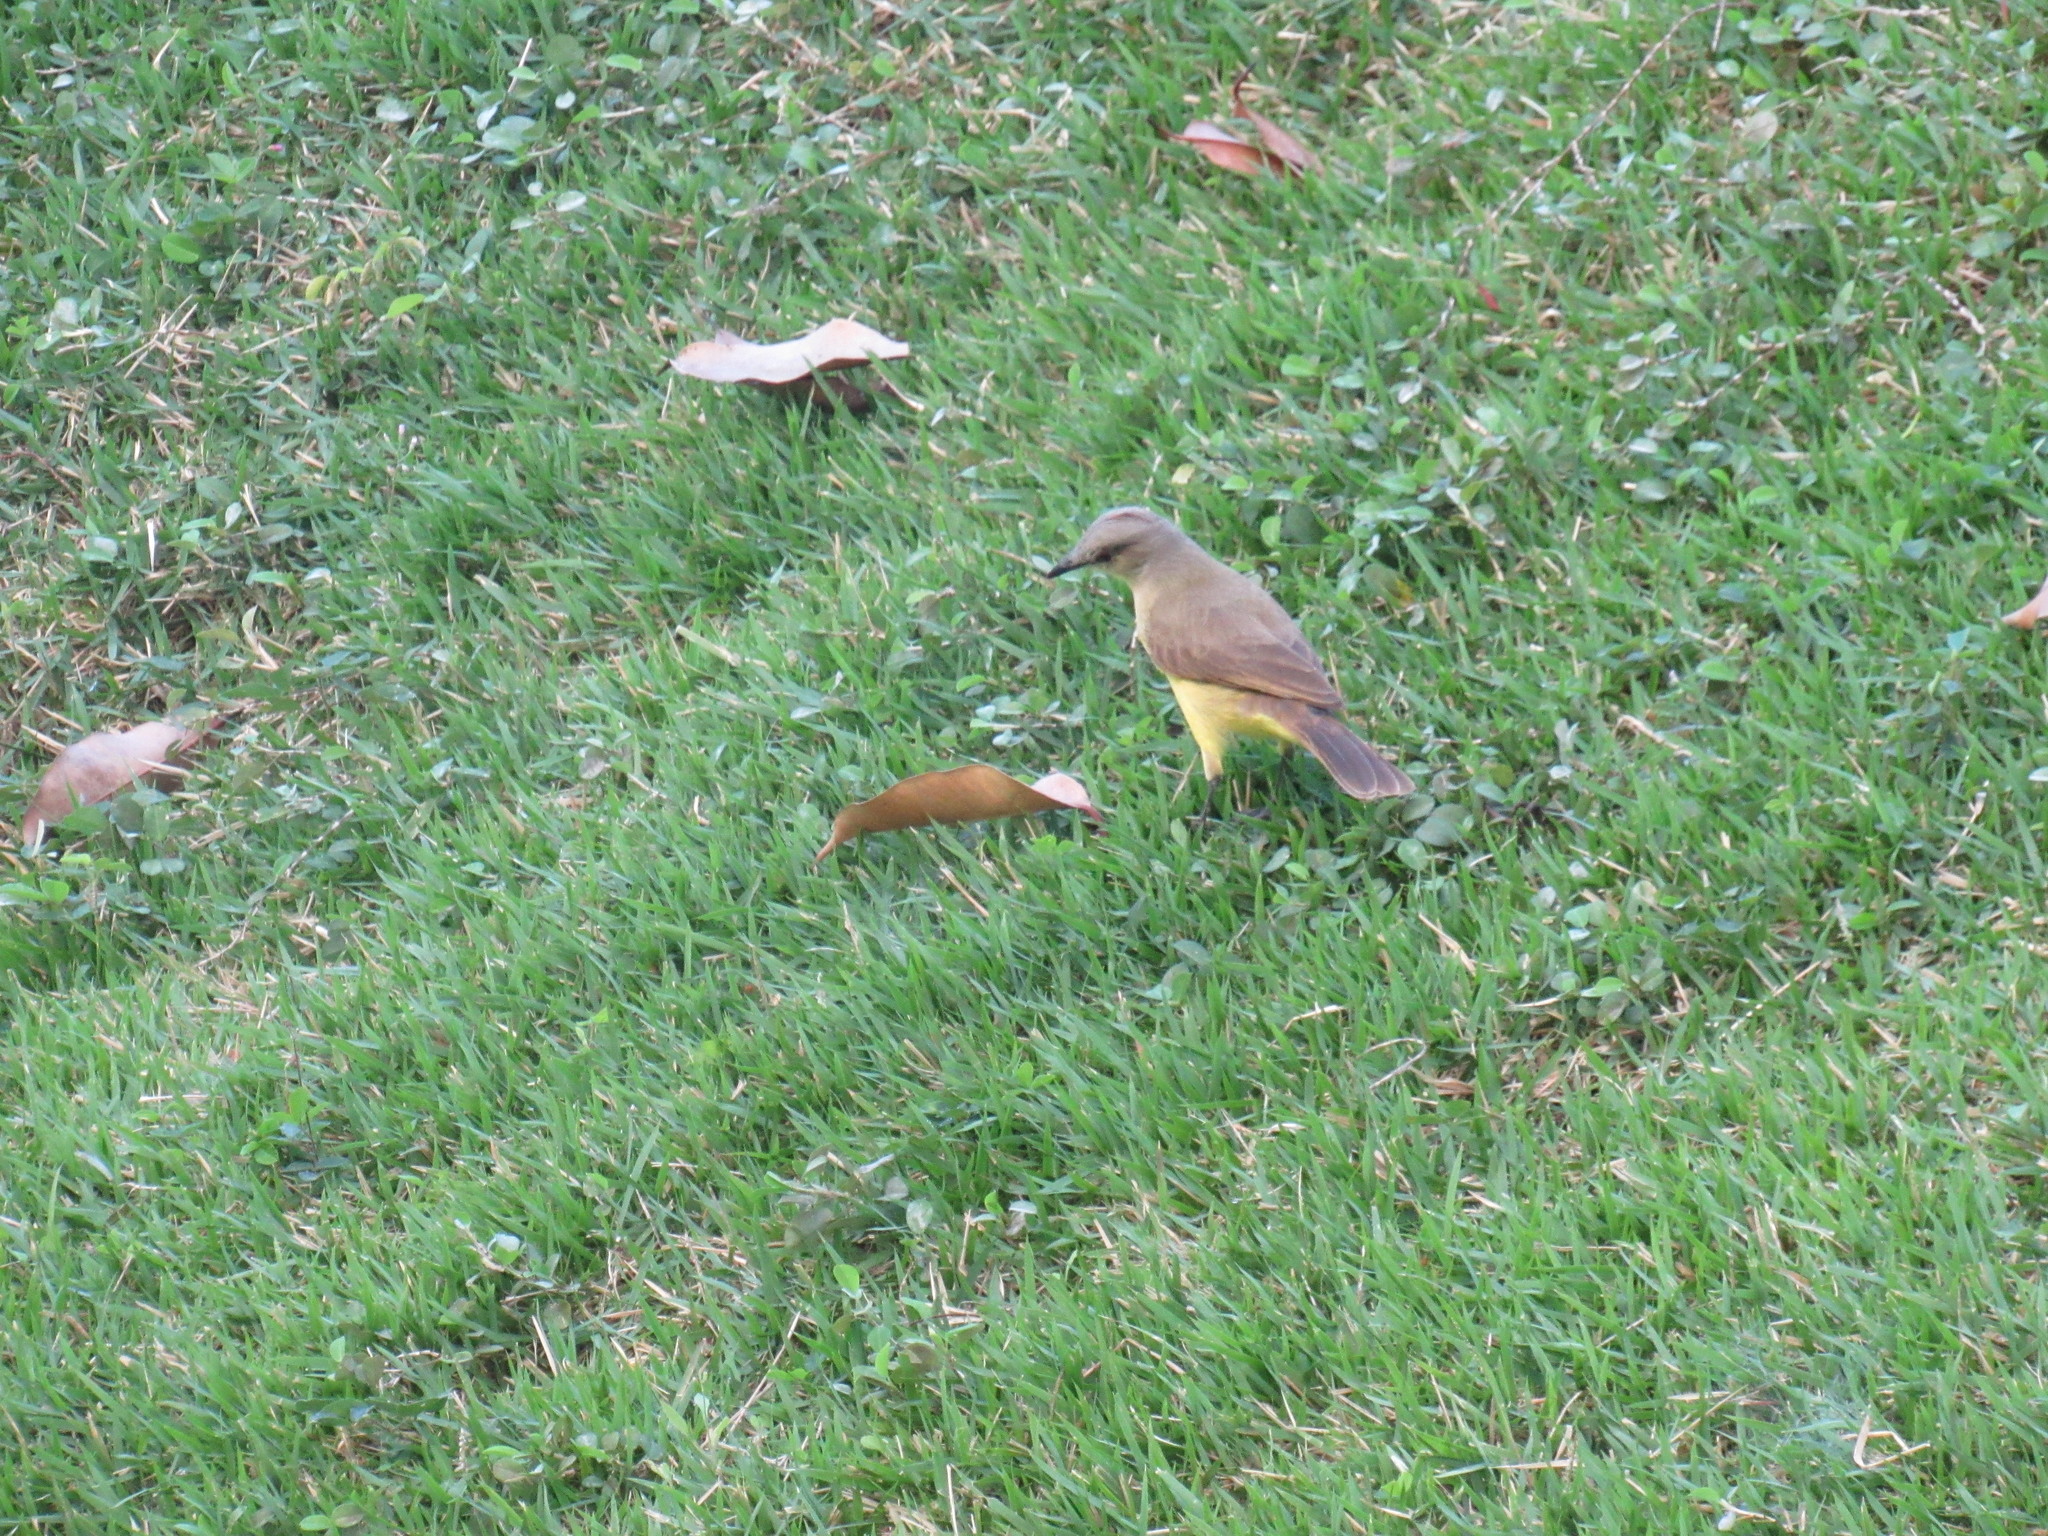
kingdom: Animalia
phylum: Chordata
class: Aves
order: Passeriformes
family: Tyrannidae
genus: Machetornis
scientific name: Machetornis rixosa
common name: Cattle tyrant
